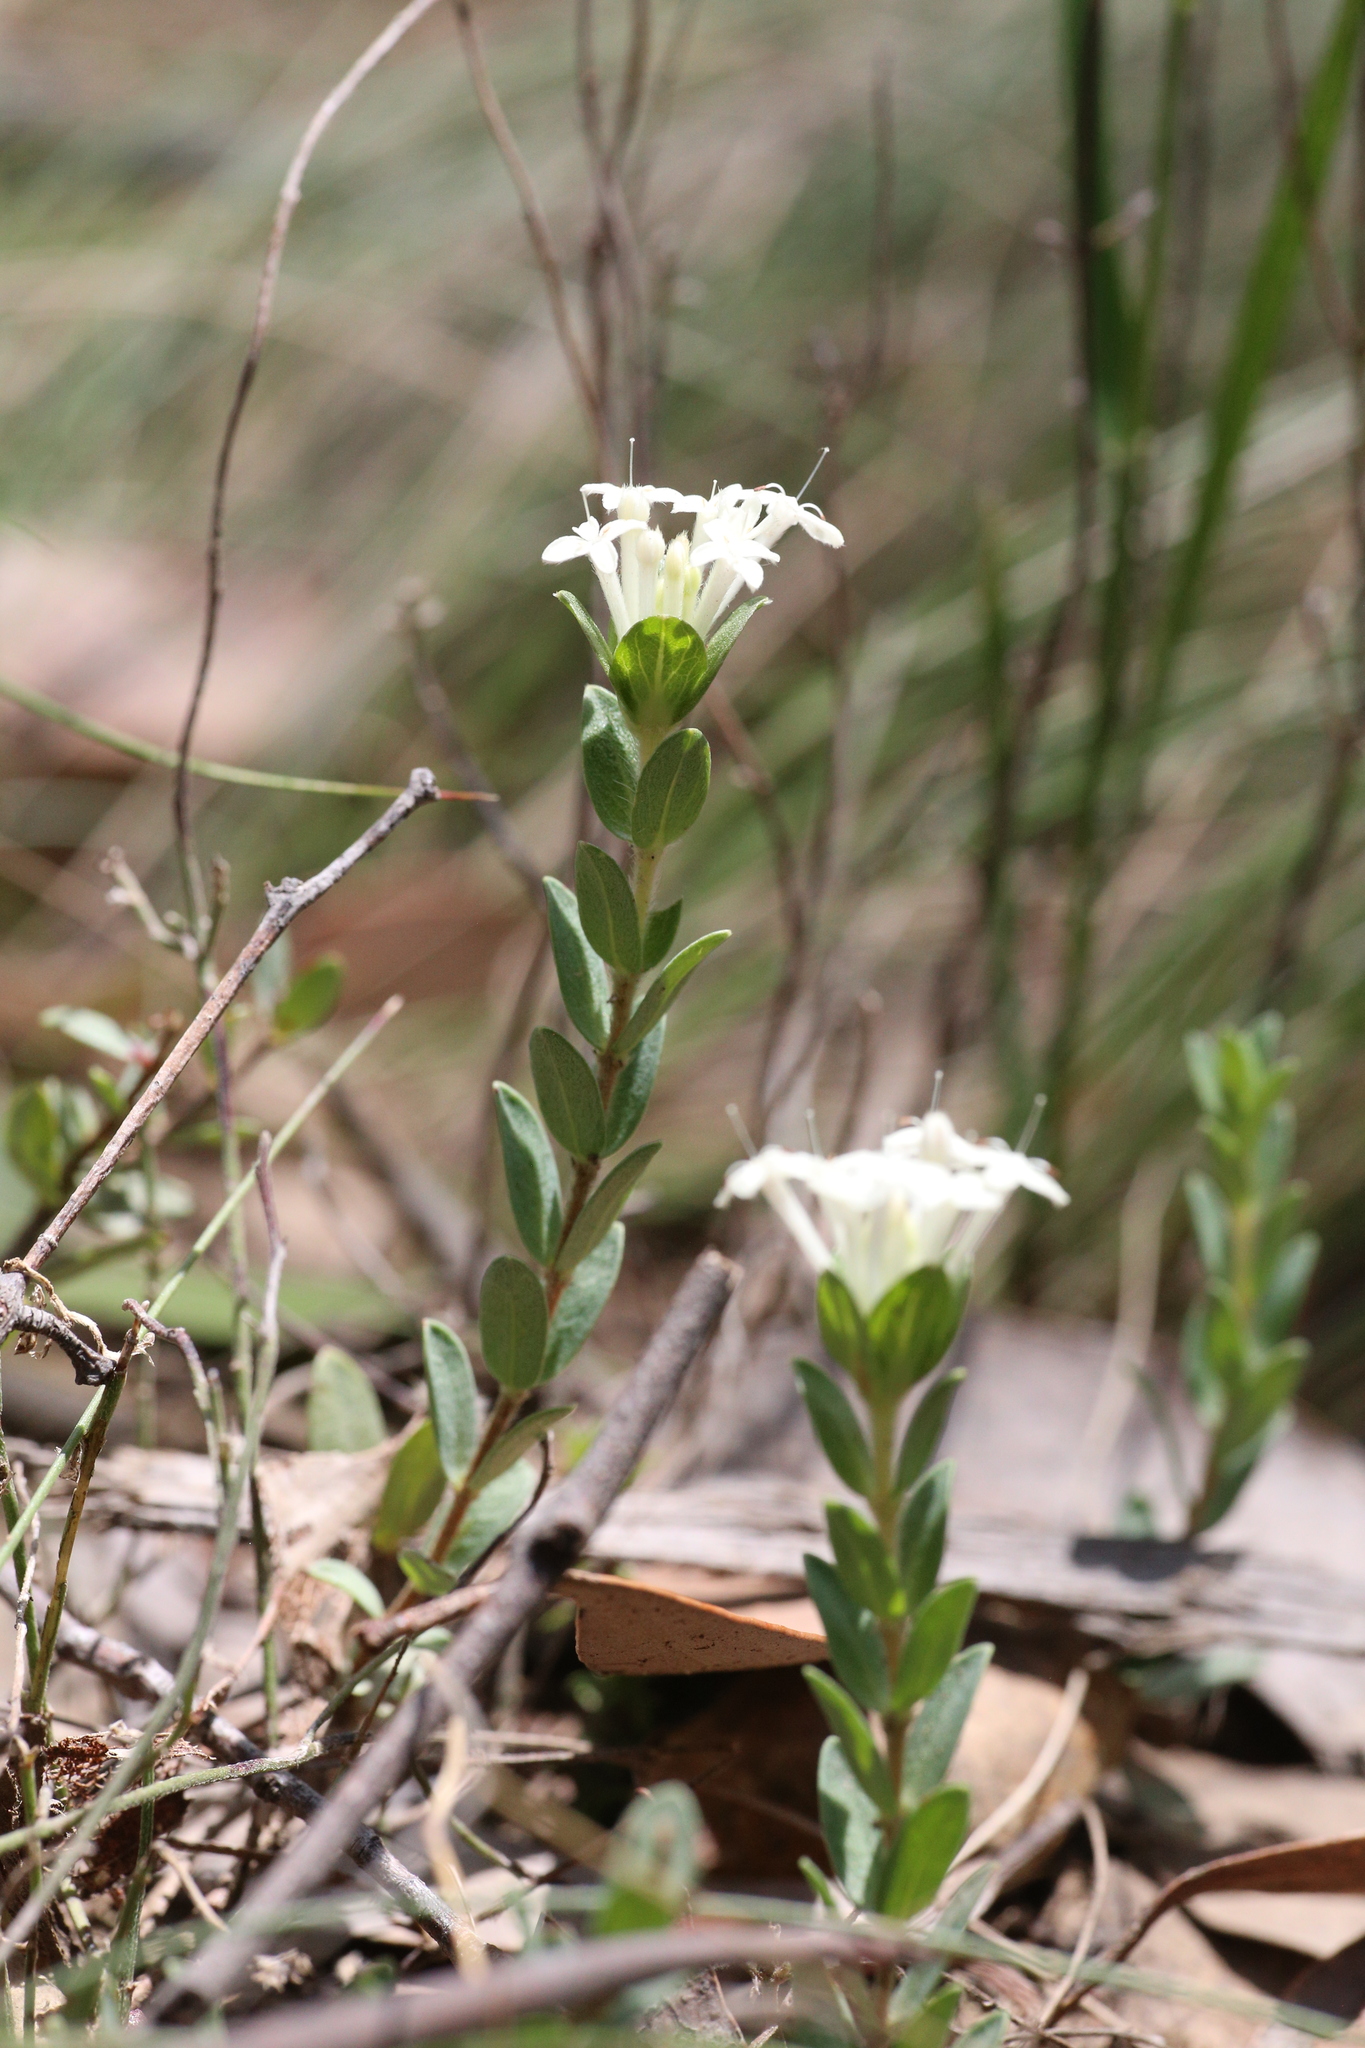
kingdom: Plantae
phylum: Tracheophyta
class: Magnoliopsida
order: Malvales
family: Thymelaeaceae
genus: Pimelea
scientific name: Pimelea humilis
